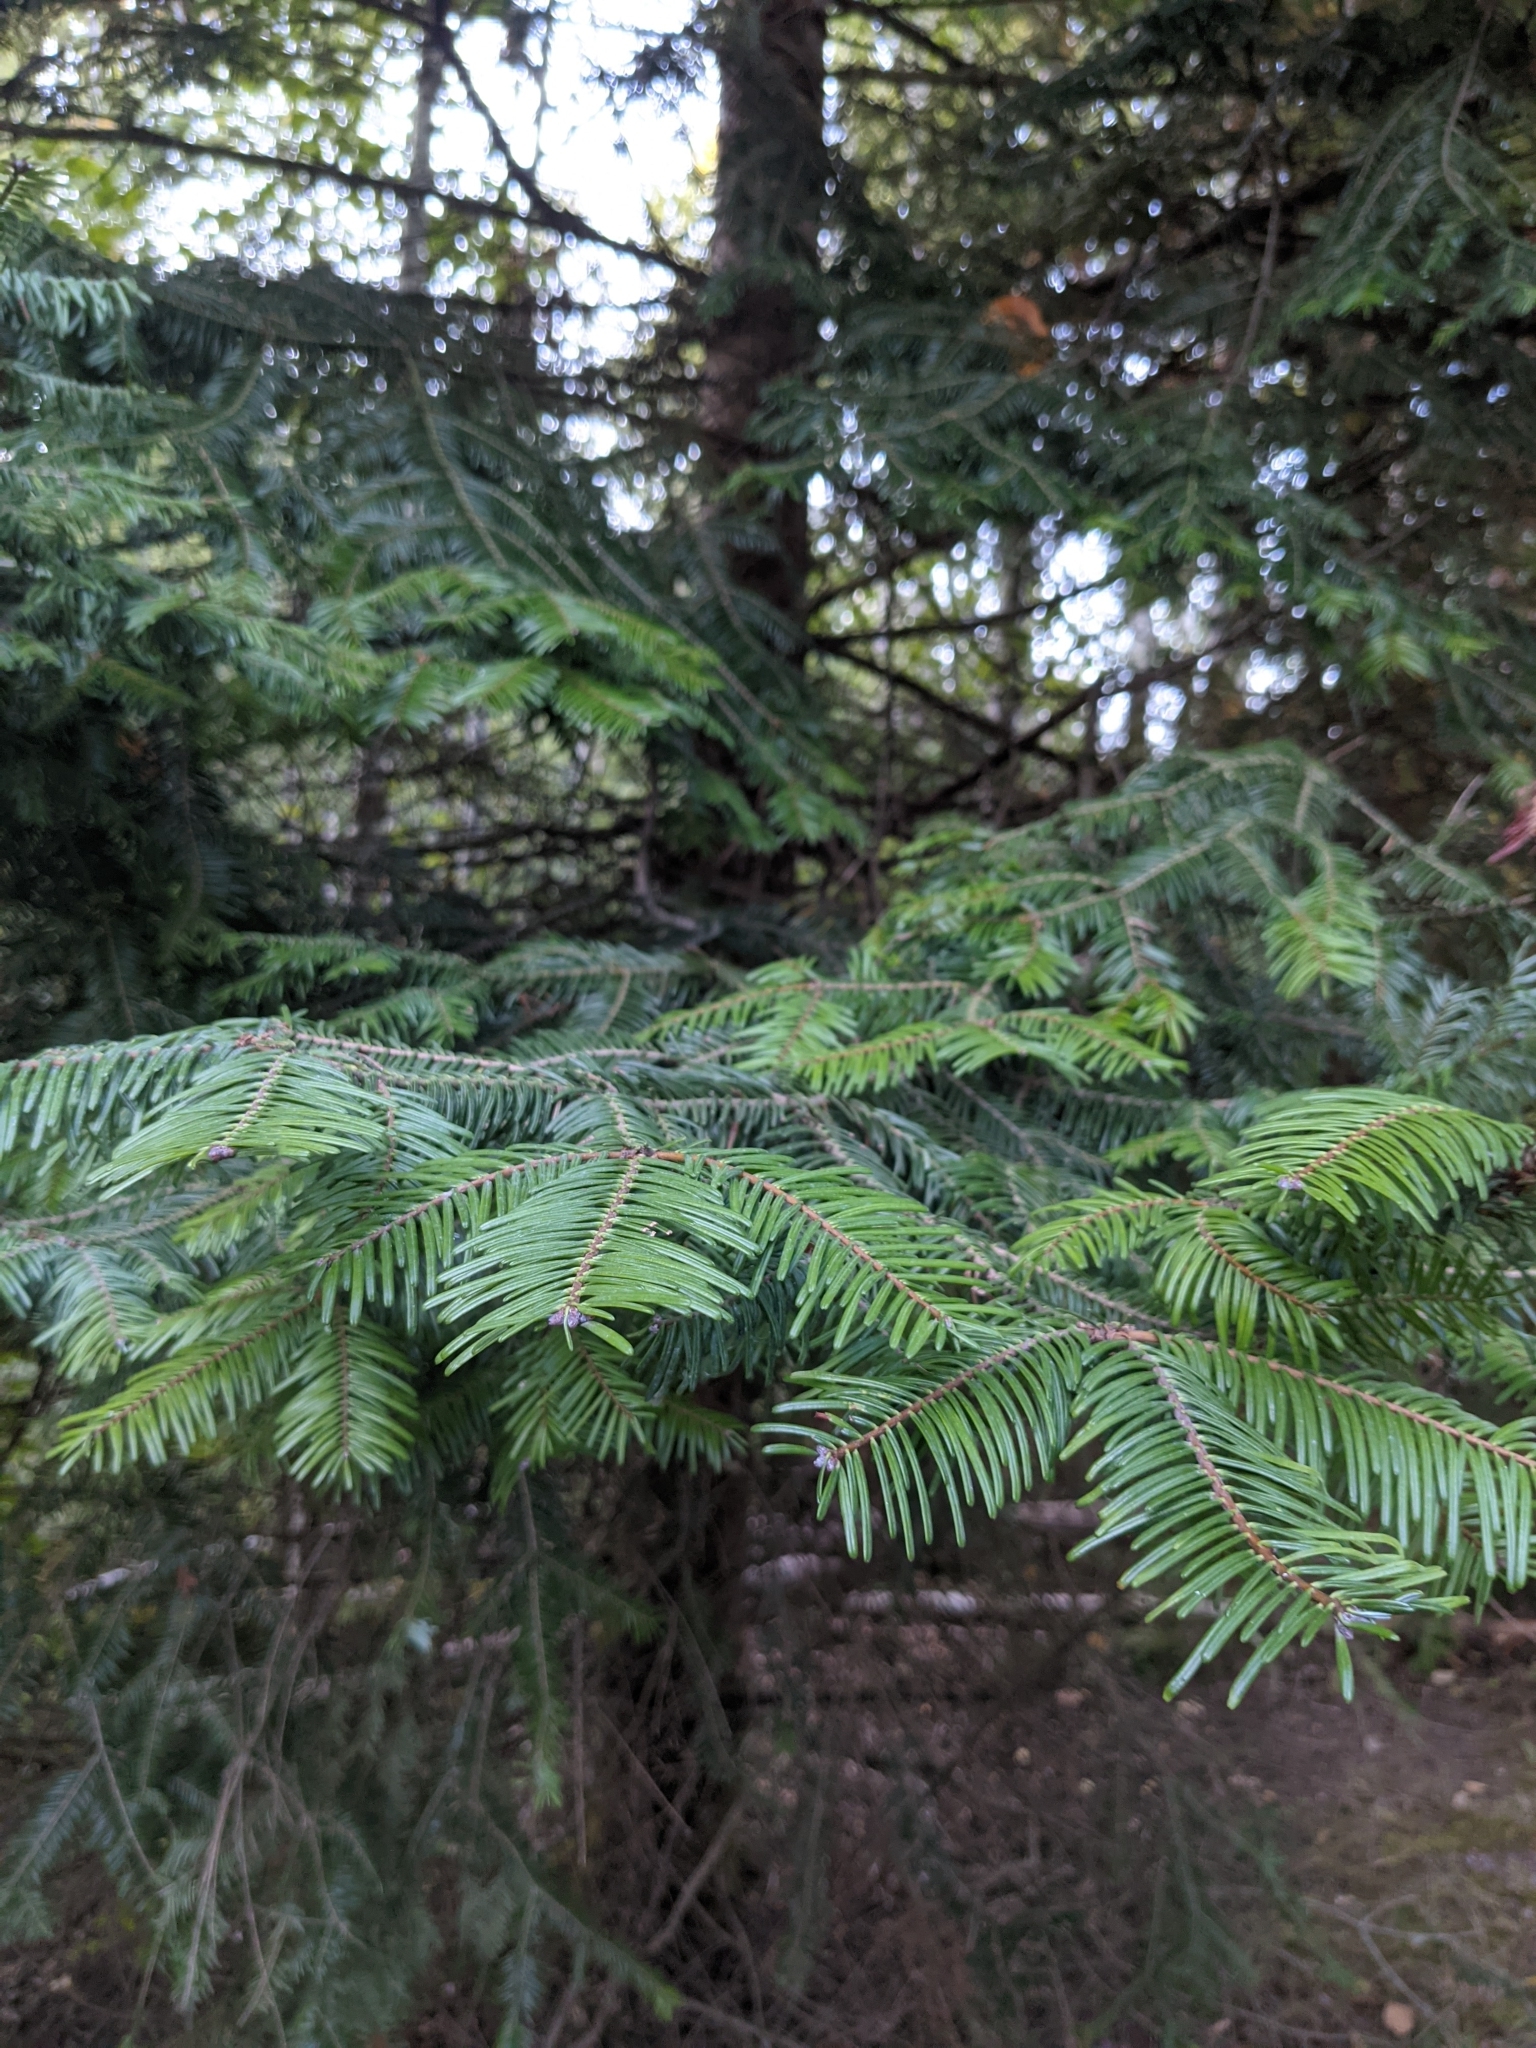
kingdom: Plantae
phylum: Tracheophyta
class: Pinopsida
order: Pinales
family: Pinaceae
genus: Abies
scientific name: Abies grandis
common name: Giant fir
